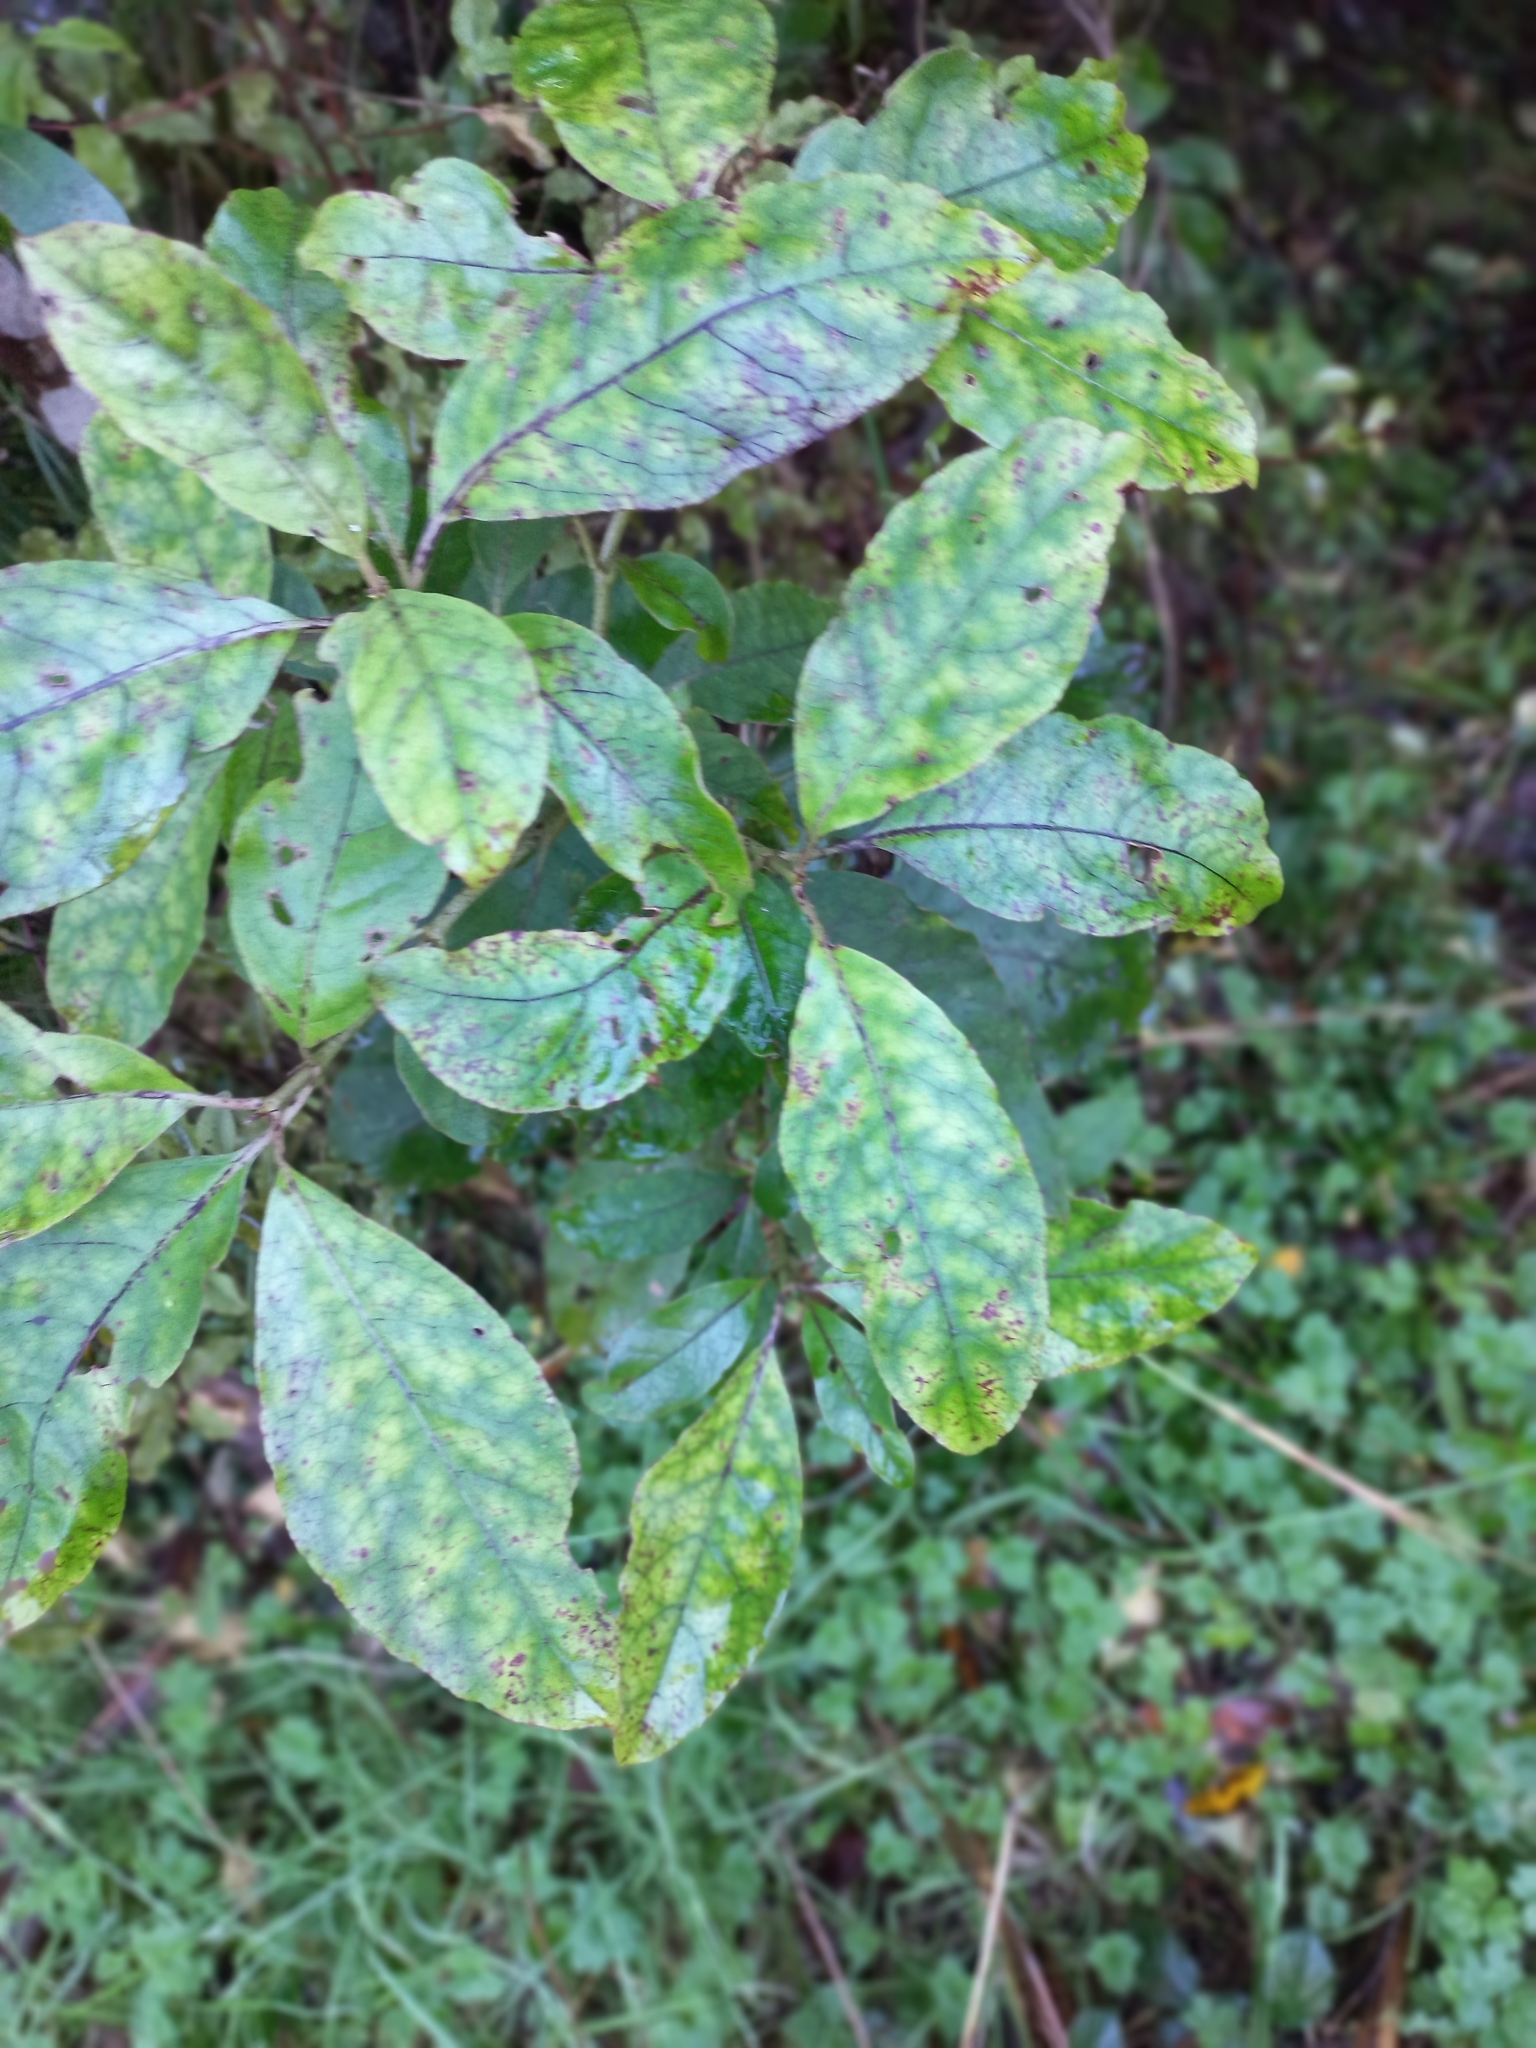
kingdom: Plantae
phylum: Tracheophyta
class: Magnoliopsida
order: Gentianales
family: Rubiaceae
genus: Coprosma
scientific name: Coprosma autumnalis
